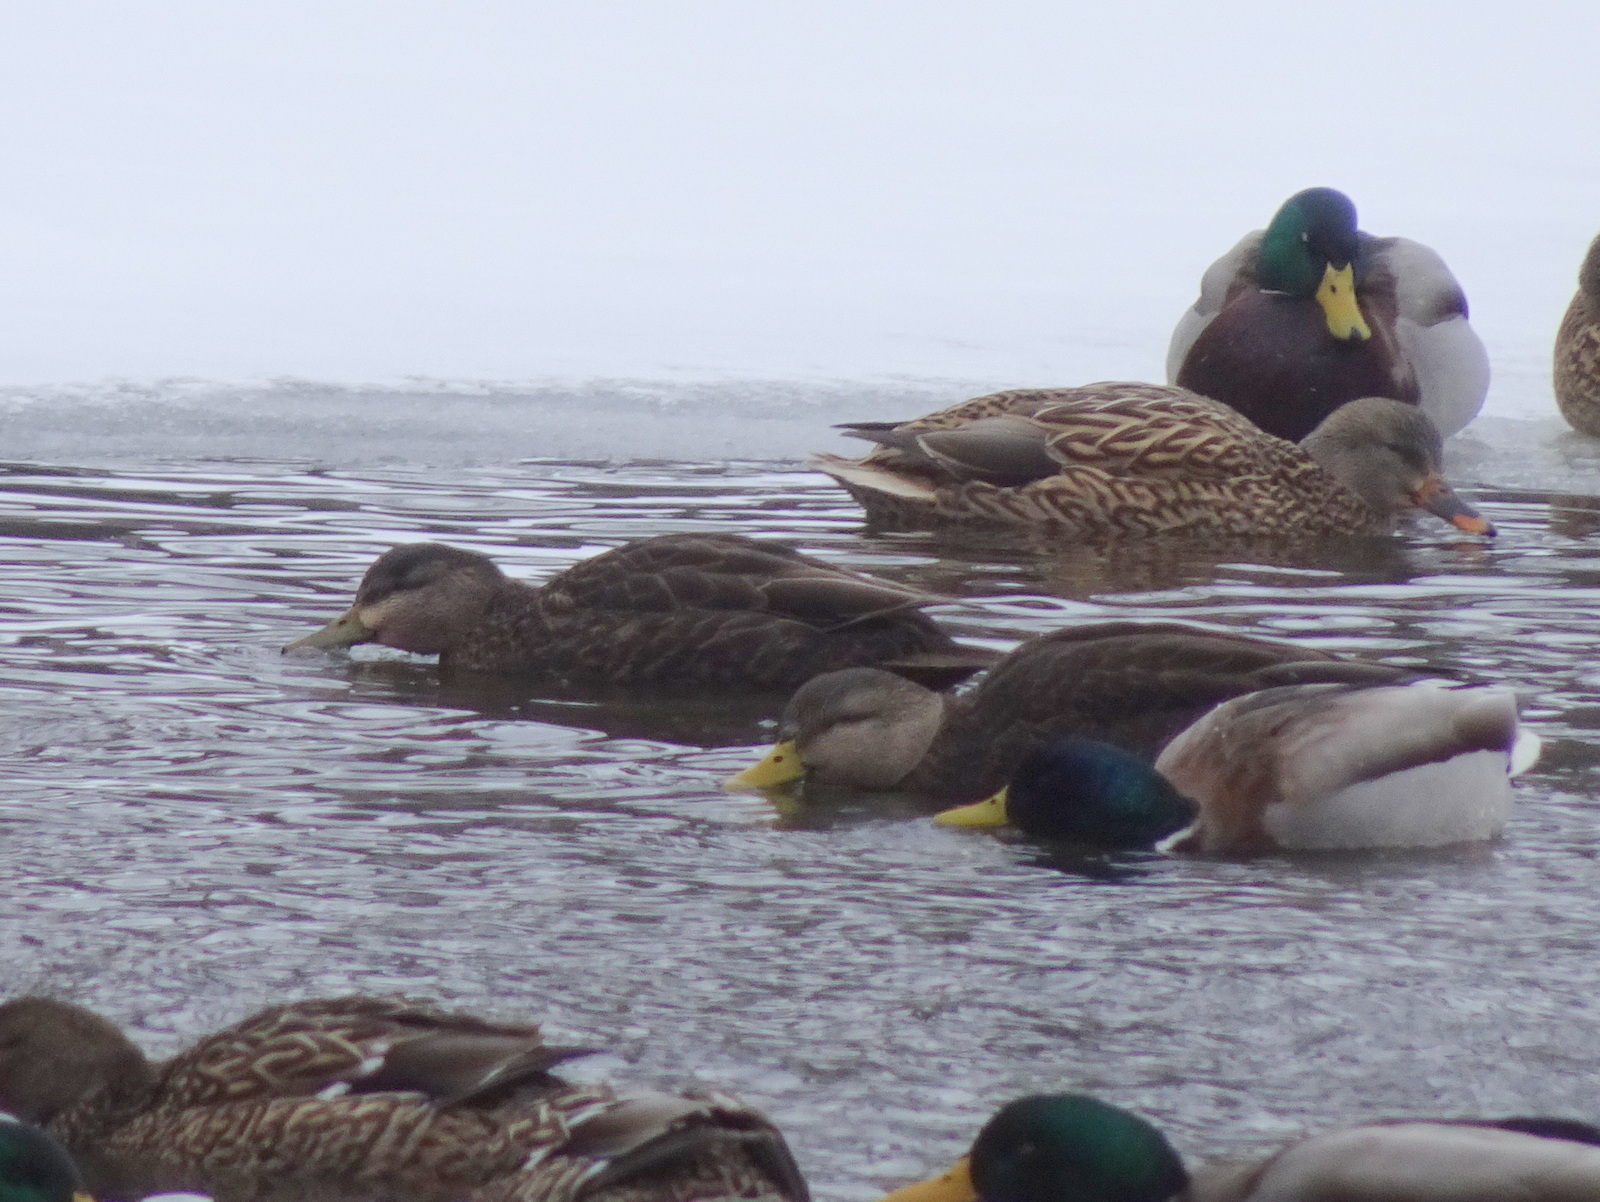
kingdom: Animalia
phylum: Chordata
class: Aves
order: Anseriformes
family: Anatidae
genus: Anas
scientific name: Anas rubripes
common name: American black duck
